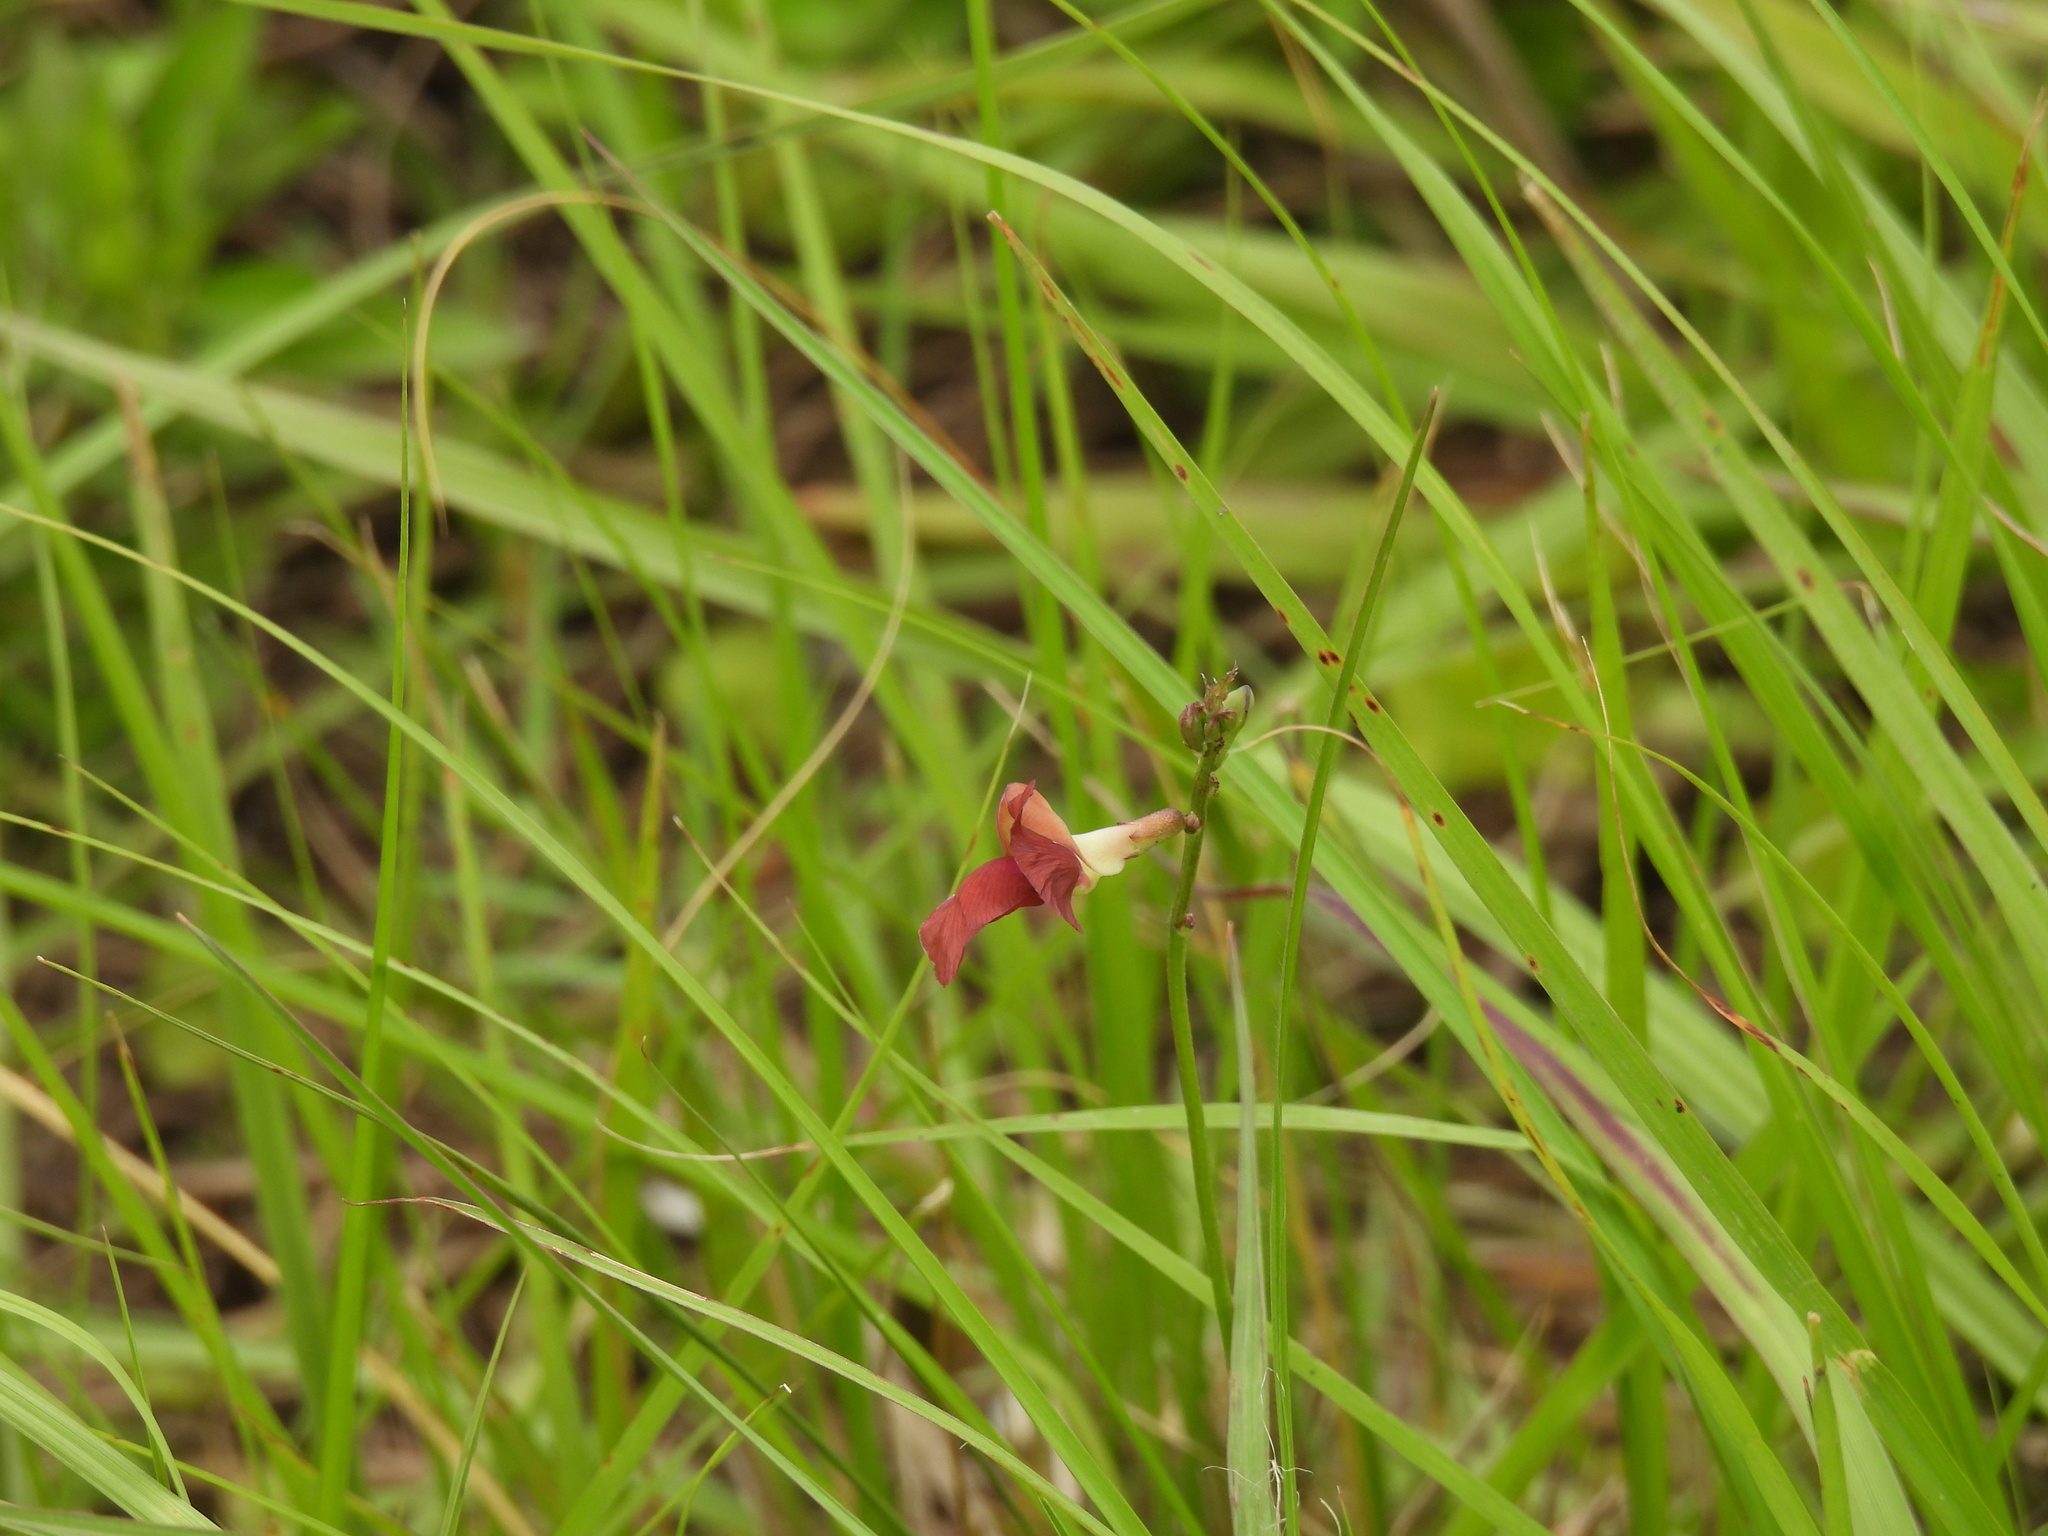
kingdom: Plantae
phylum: Tracheophyta
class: Magnoliopsida
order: Fabales
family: Fabaceae
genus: Macroptilium
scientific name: Macroptilium lathyroides
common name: Wild bushbean
